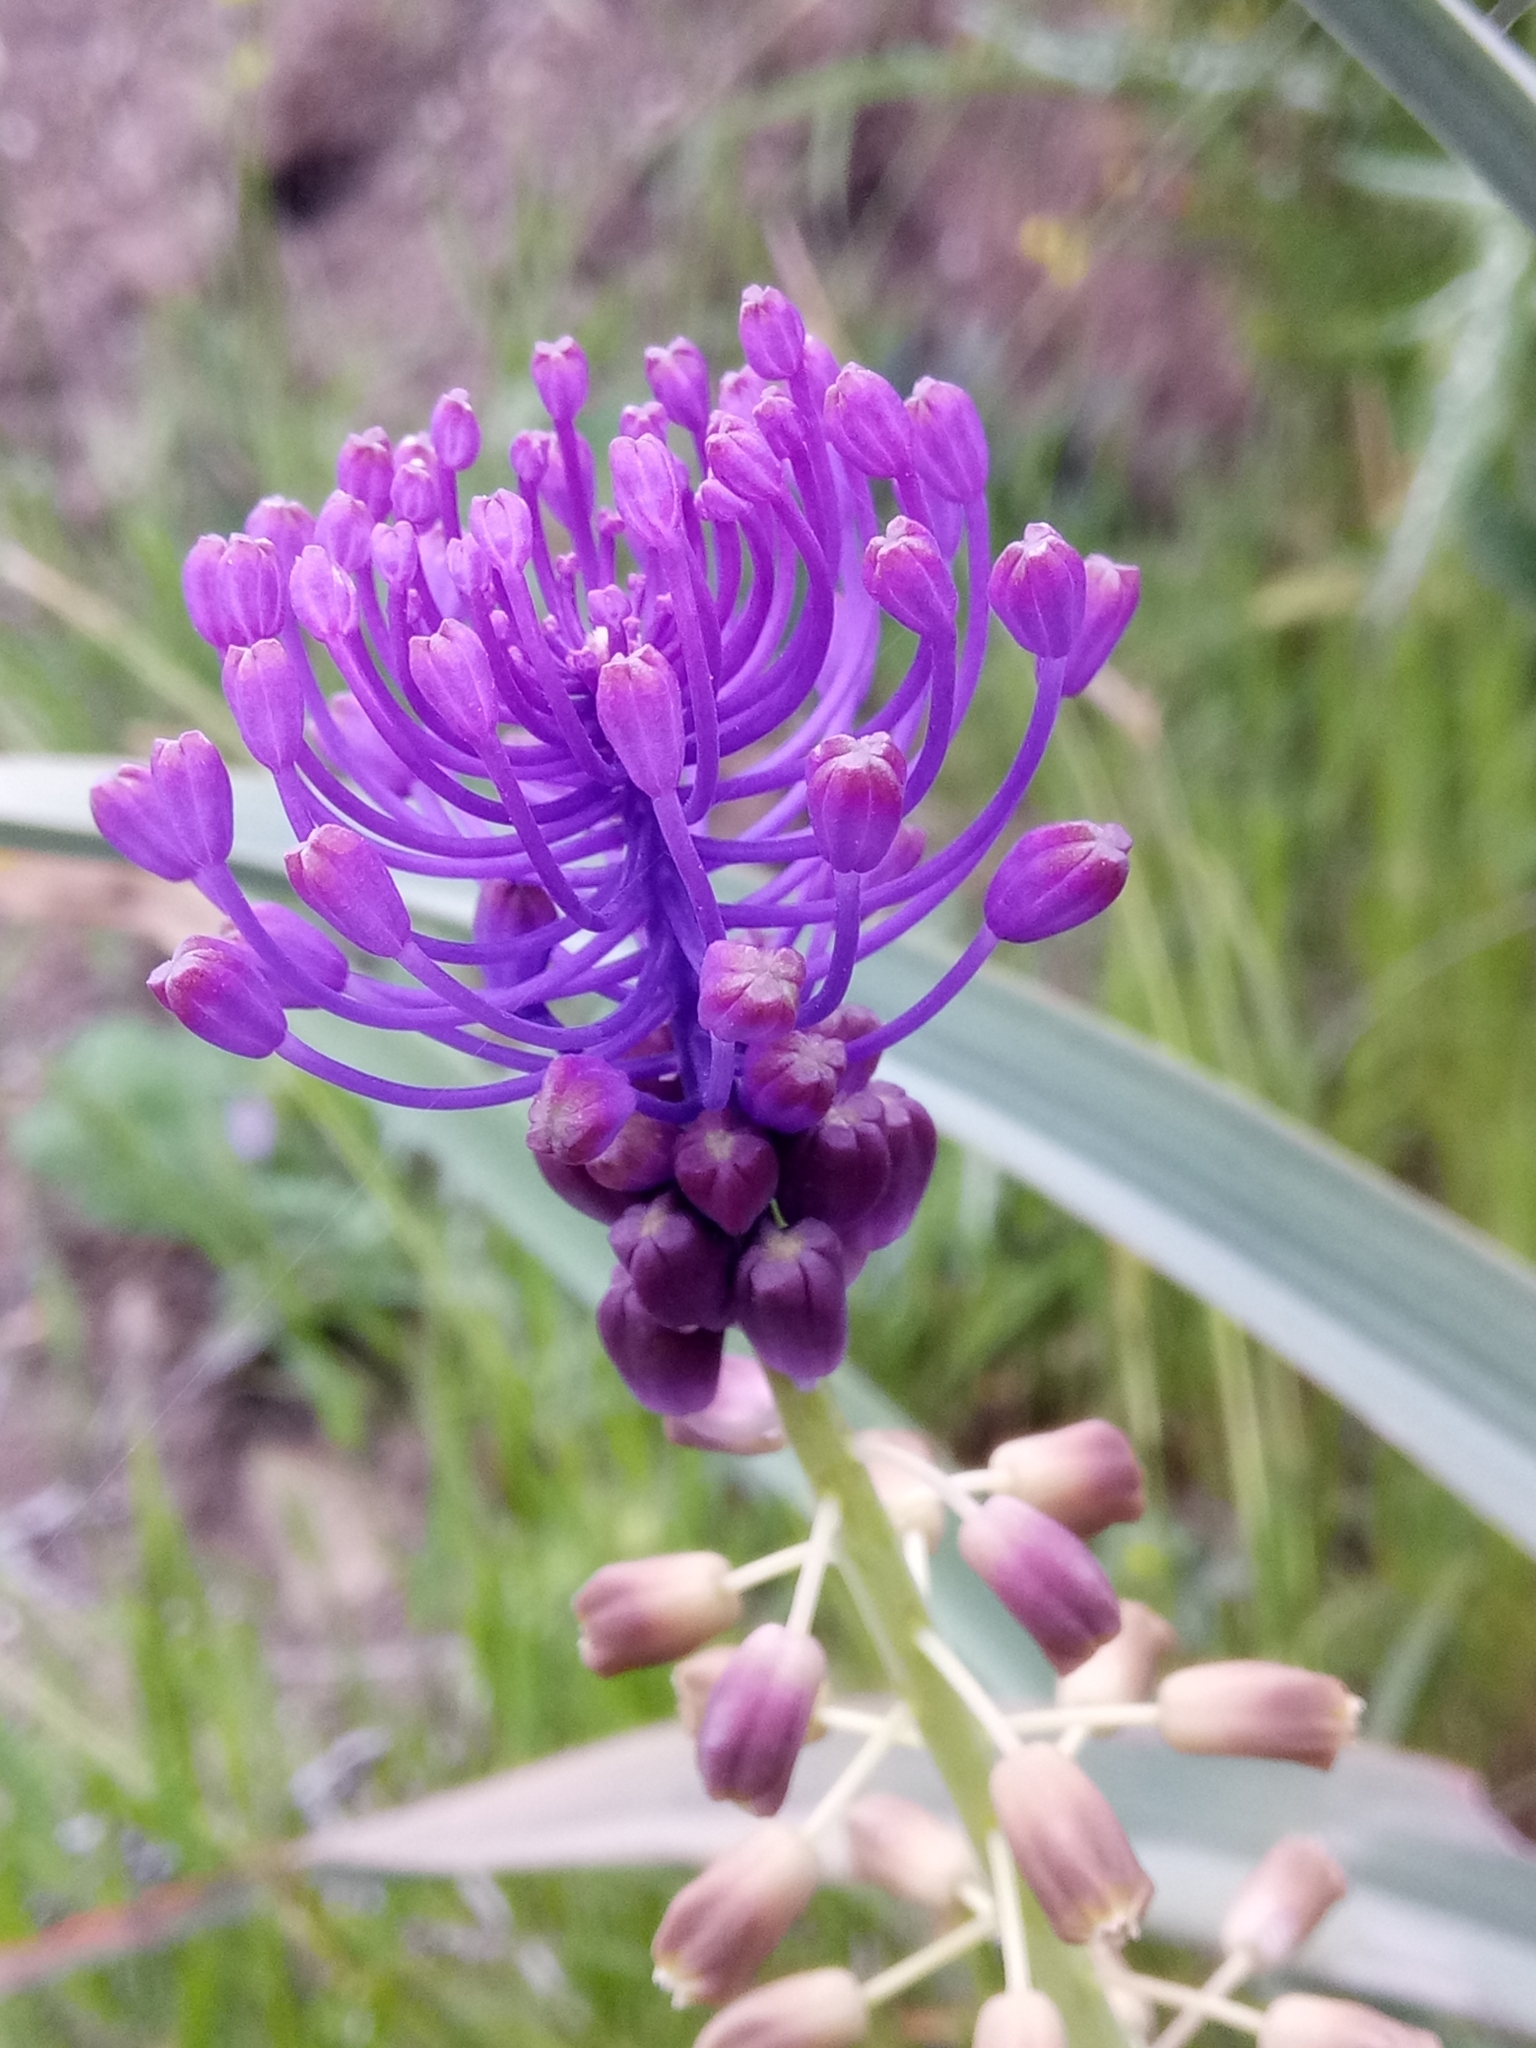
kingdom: Plantae
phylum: Tracheophyta
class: Liliopsida
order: Asparagales
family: Asparagaceae
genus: Muscari
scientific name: Muscari comosum
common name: Tassel hyacinth
